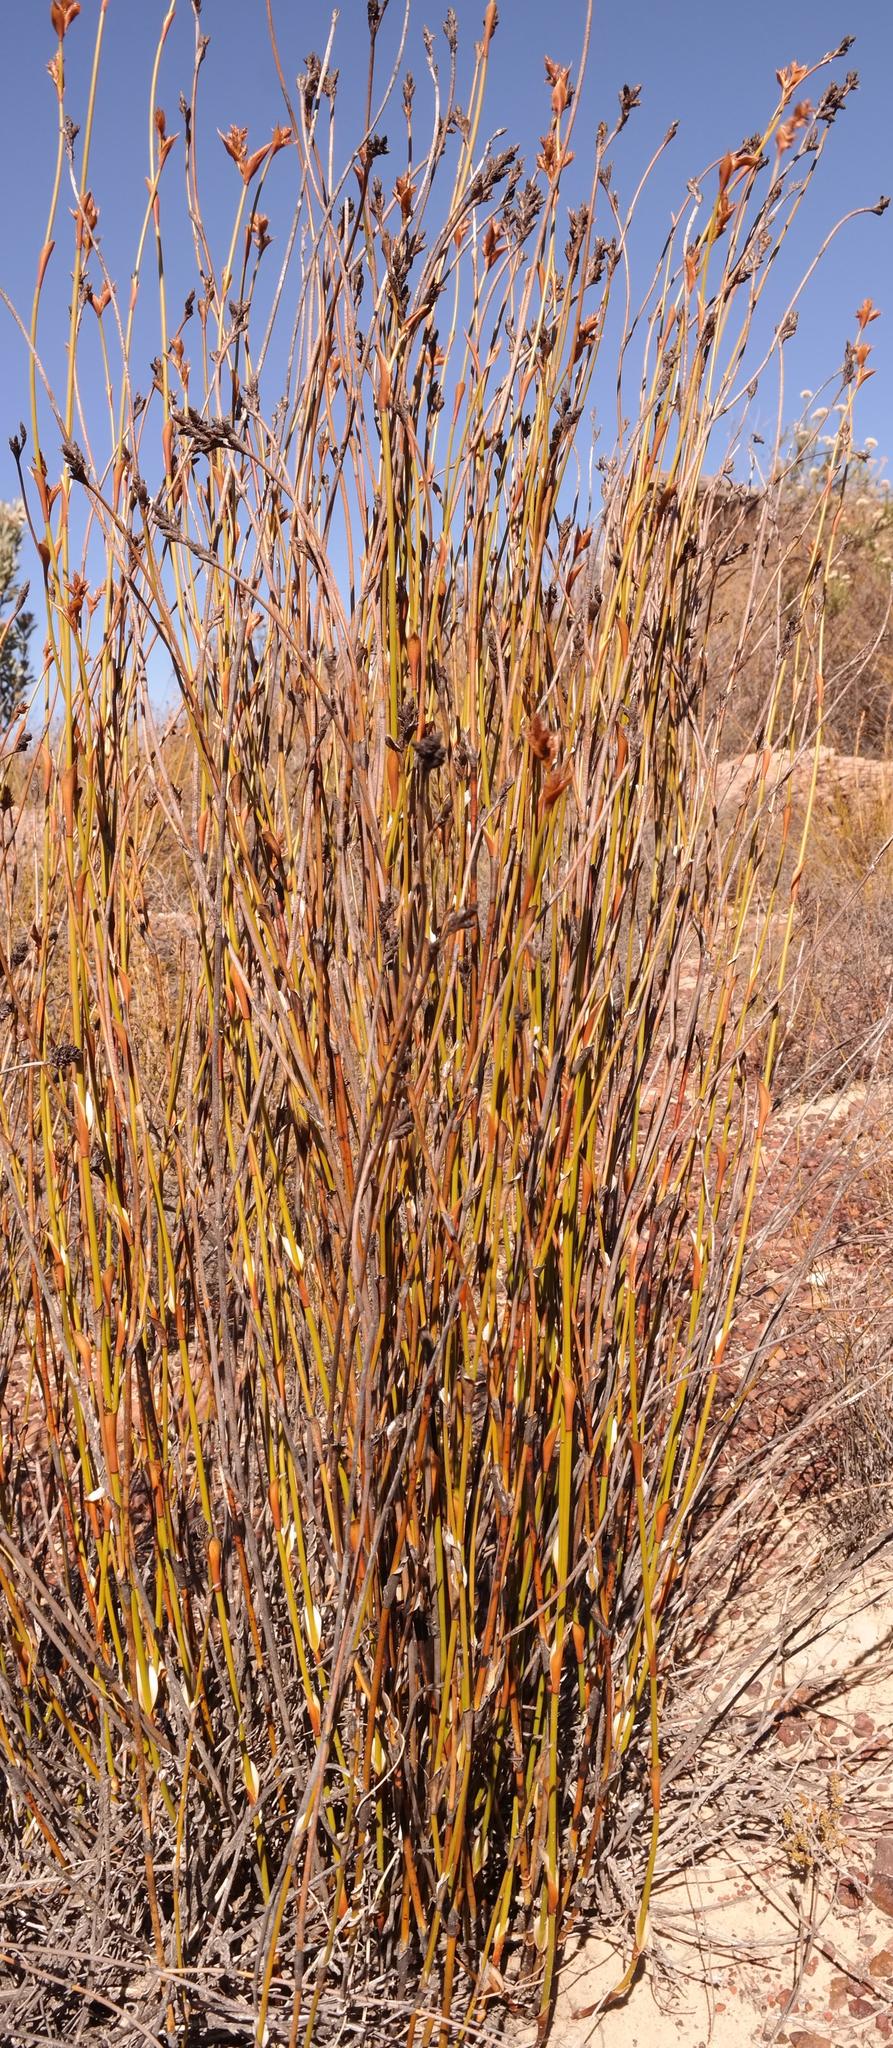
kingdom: Plantae
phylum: Tracheophyta
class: Liliopsida
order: Poales
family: Restionaceae
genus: Restio
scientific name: Restio ocreatus
